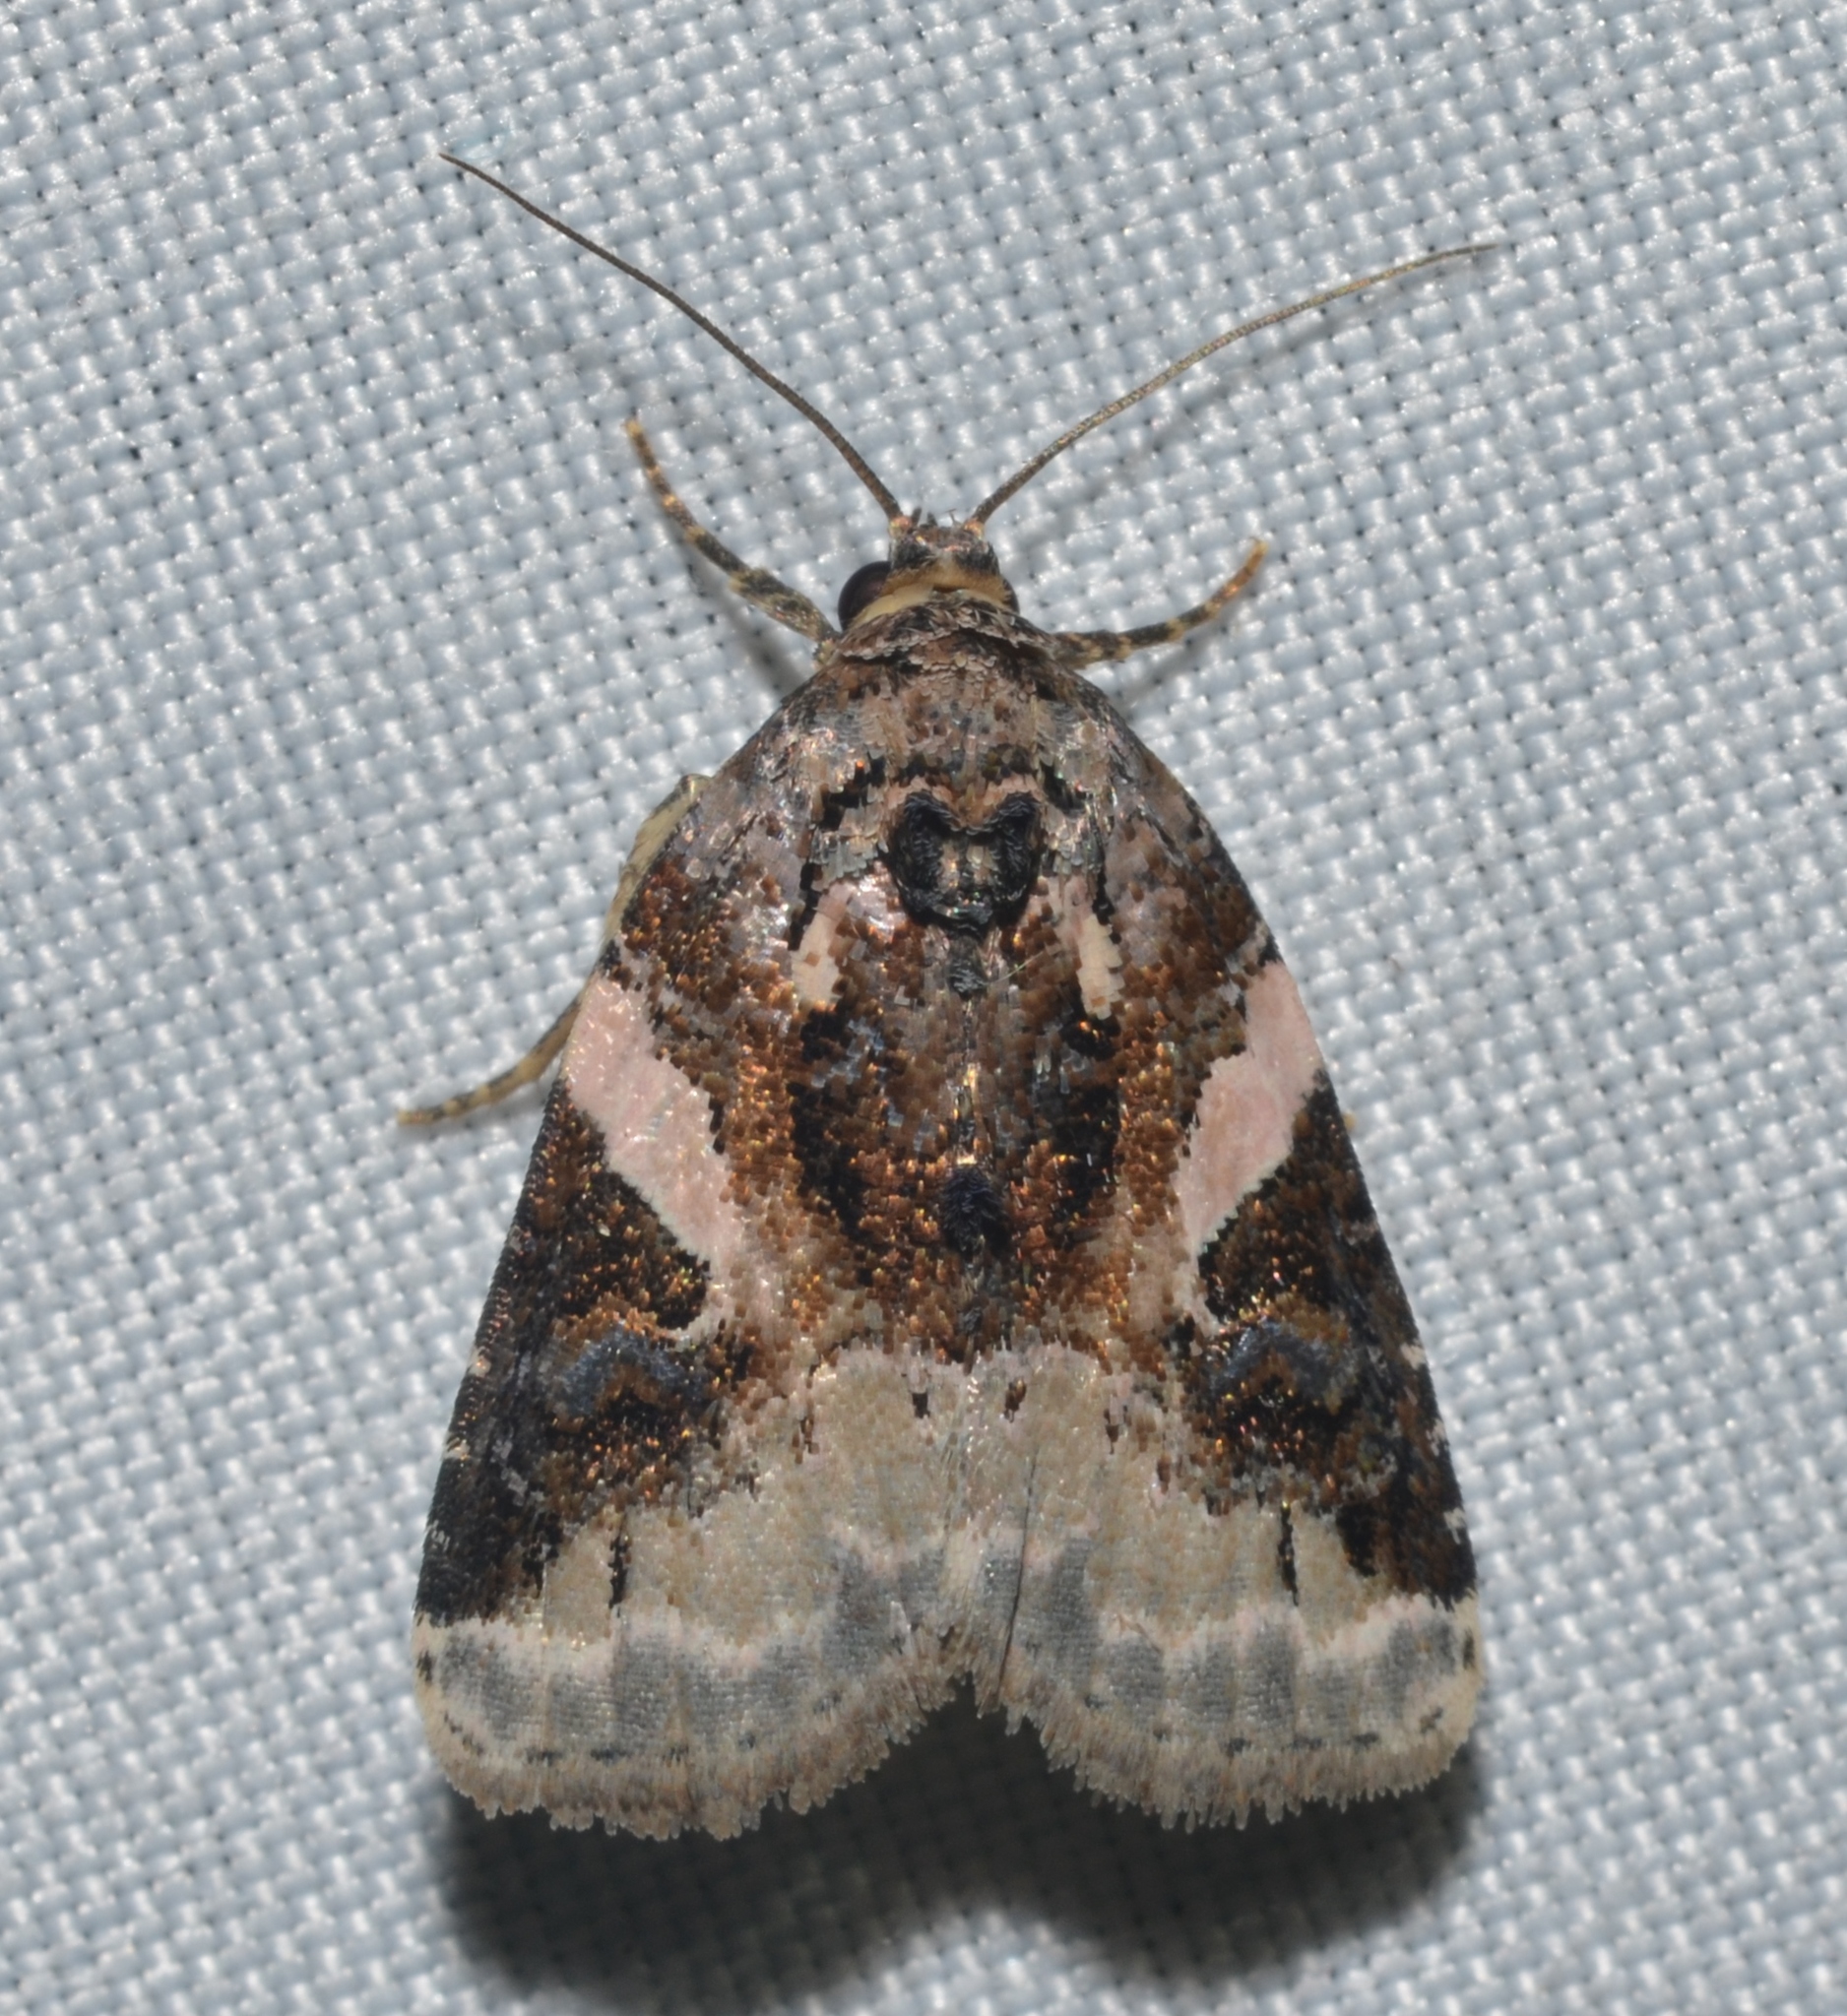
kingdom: Animalia
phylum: Arthropoda
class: Insecta
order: Lepidoptera
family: Noctuidae
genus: Pseudeustrotia
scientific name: Pseudeustrotia carneola
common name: Pink-barred lithacodia moth
